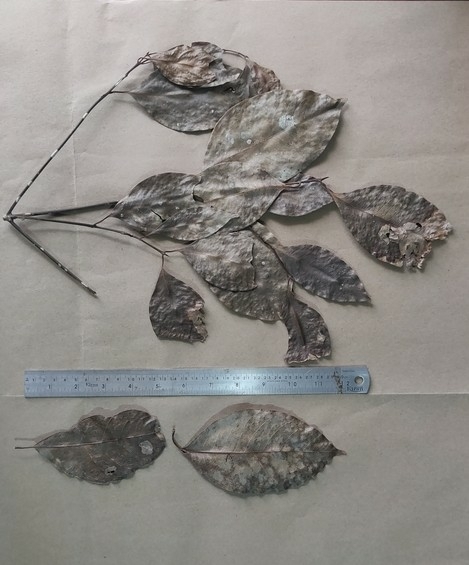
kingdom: Plantae
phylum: Tracheophyta
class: Magnoliopsida
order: Laurales
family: Lauraceae
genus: Beilschmiedia
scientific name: Beilschmiedia wightii
